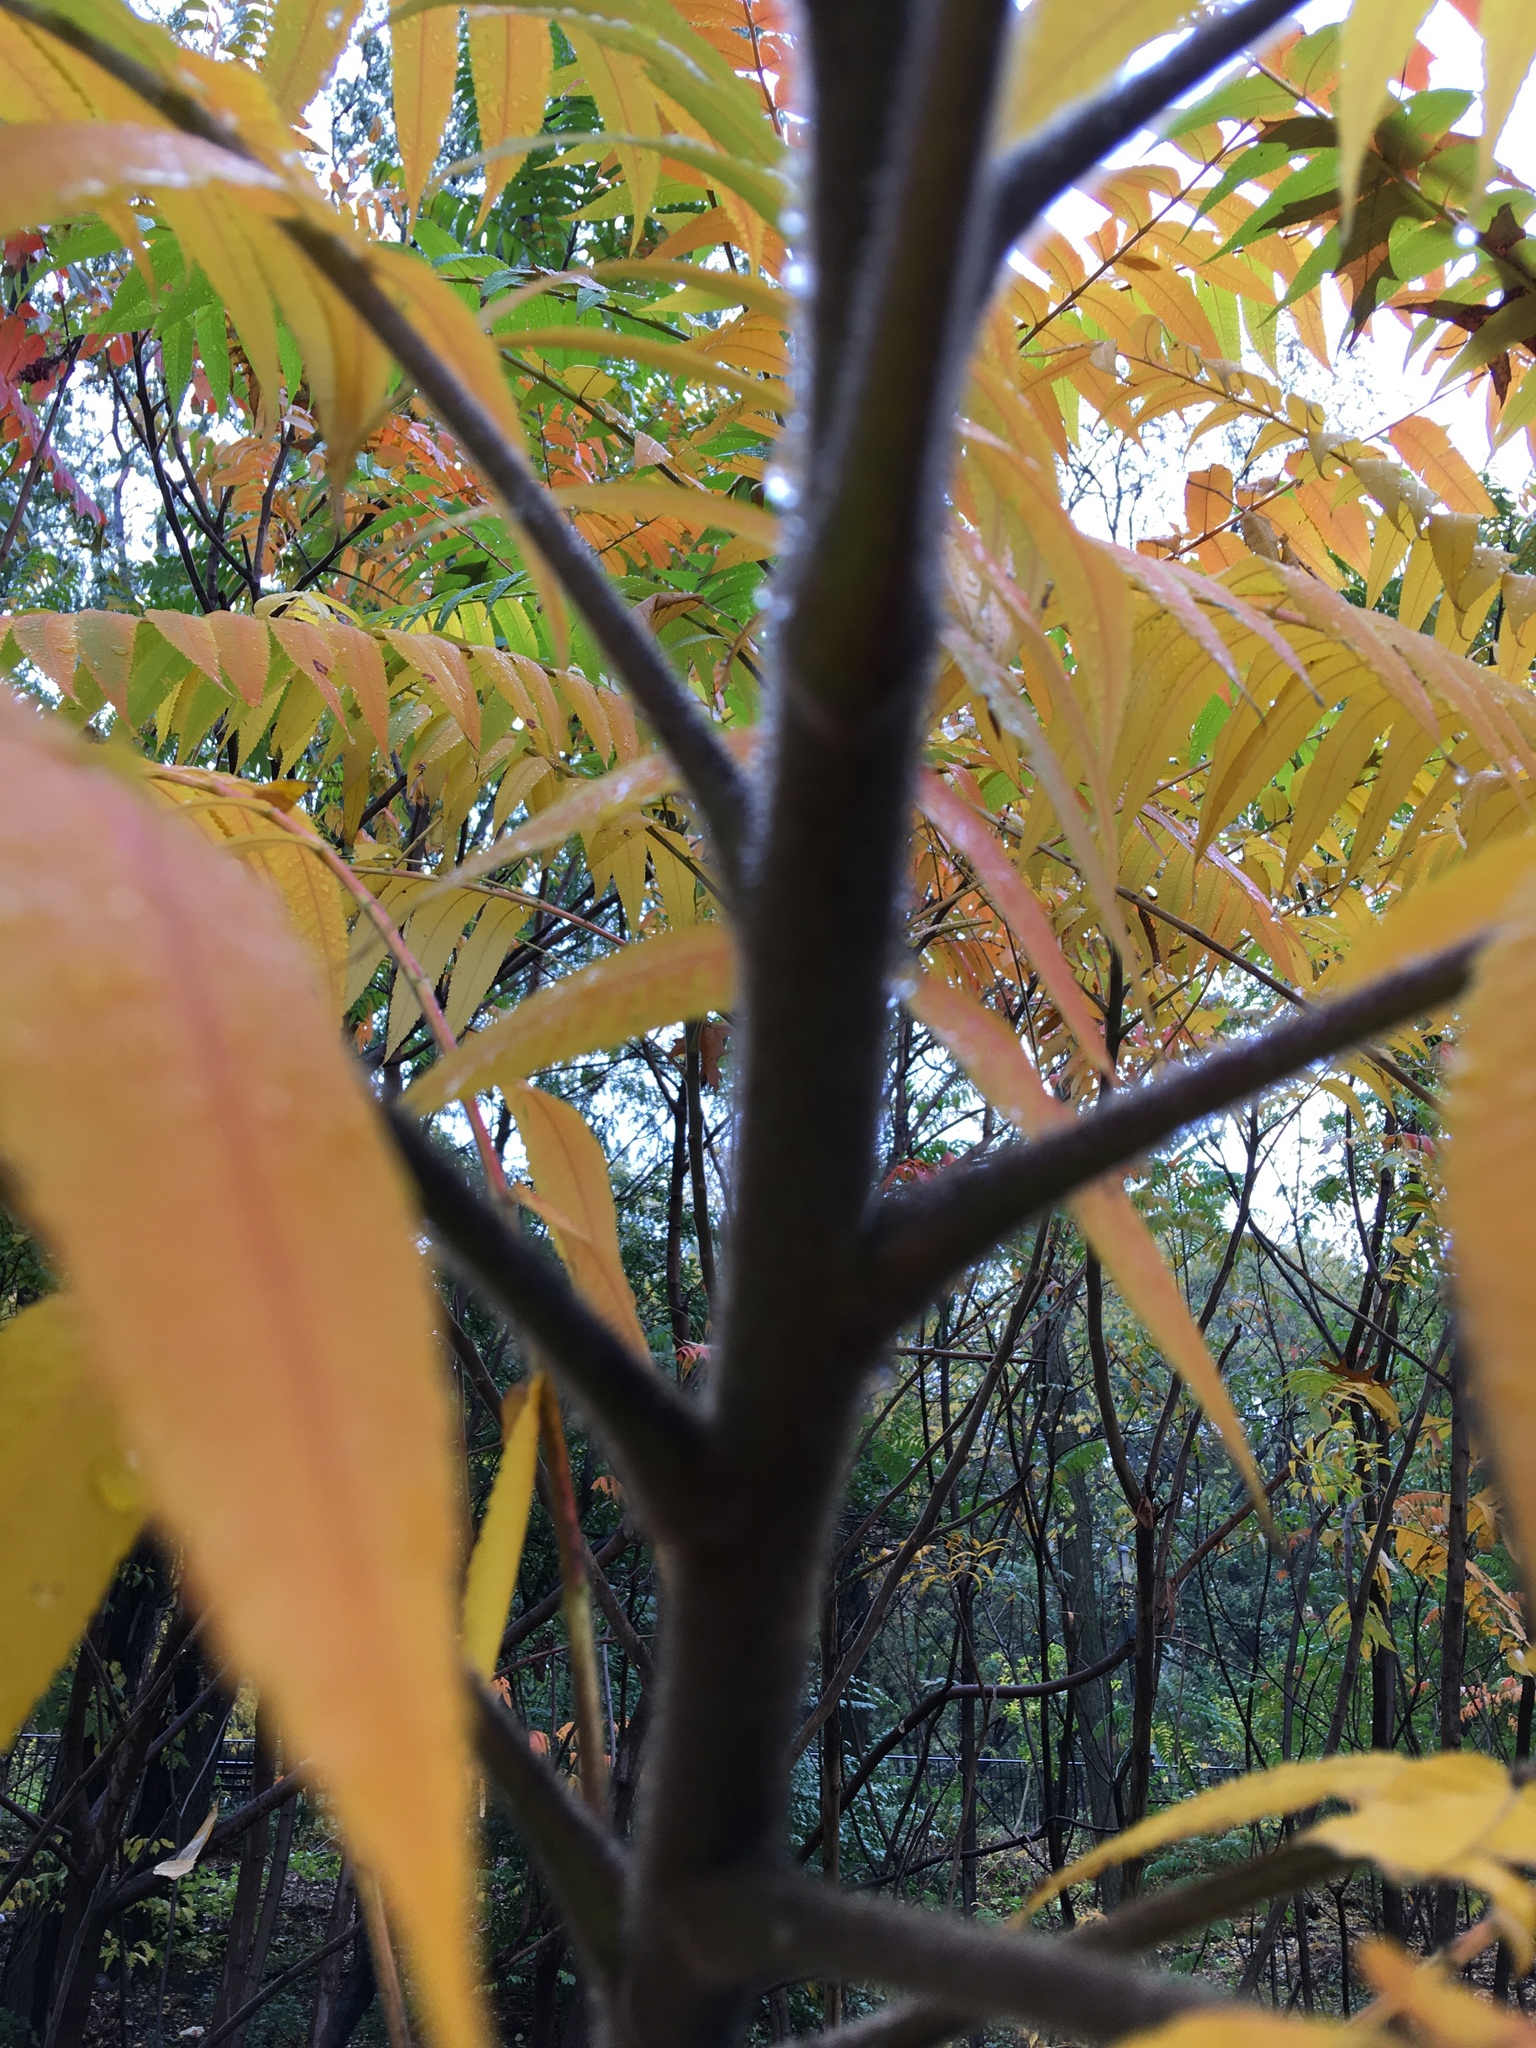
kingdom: Plantae
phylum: Tracheophyta
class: Magnoliopsida
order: Sapindales
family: Anacardiaceae
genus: Rhus
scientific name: Rhus typhina
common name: Staghorn sumac
